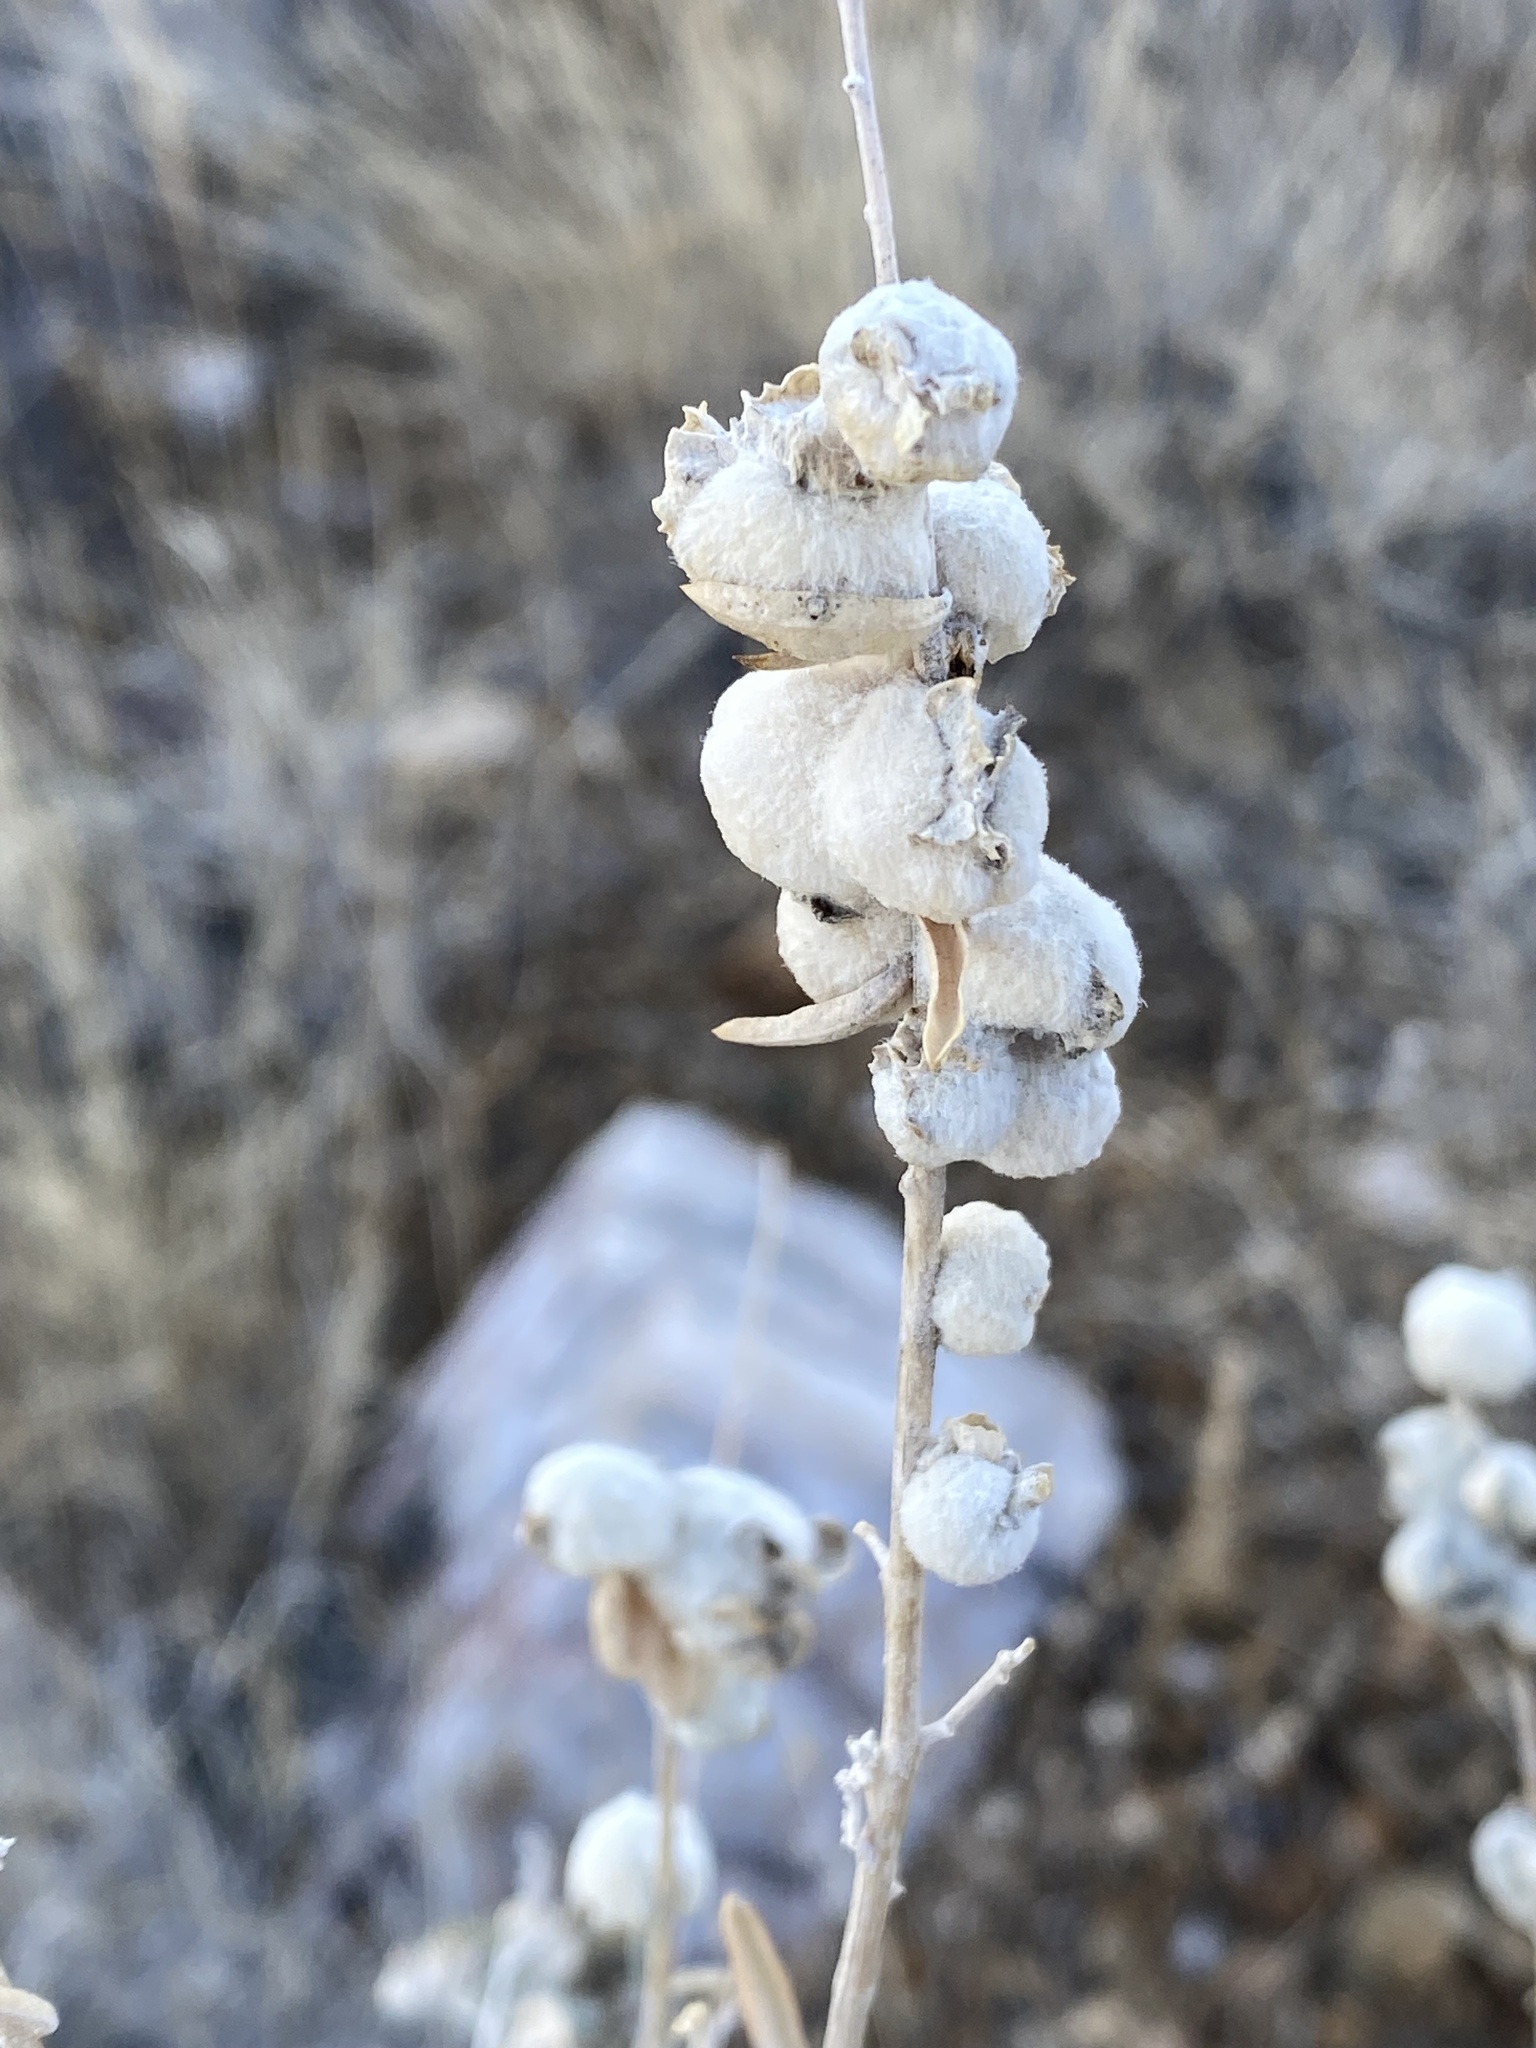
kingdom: Animalia
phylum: Arthropoda
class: Insecta
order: Diptera
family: Cecidomyiidae
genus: Asphondylia
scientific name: Asphondylia neomexicana
